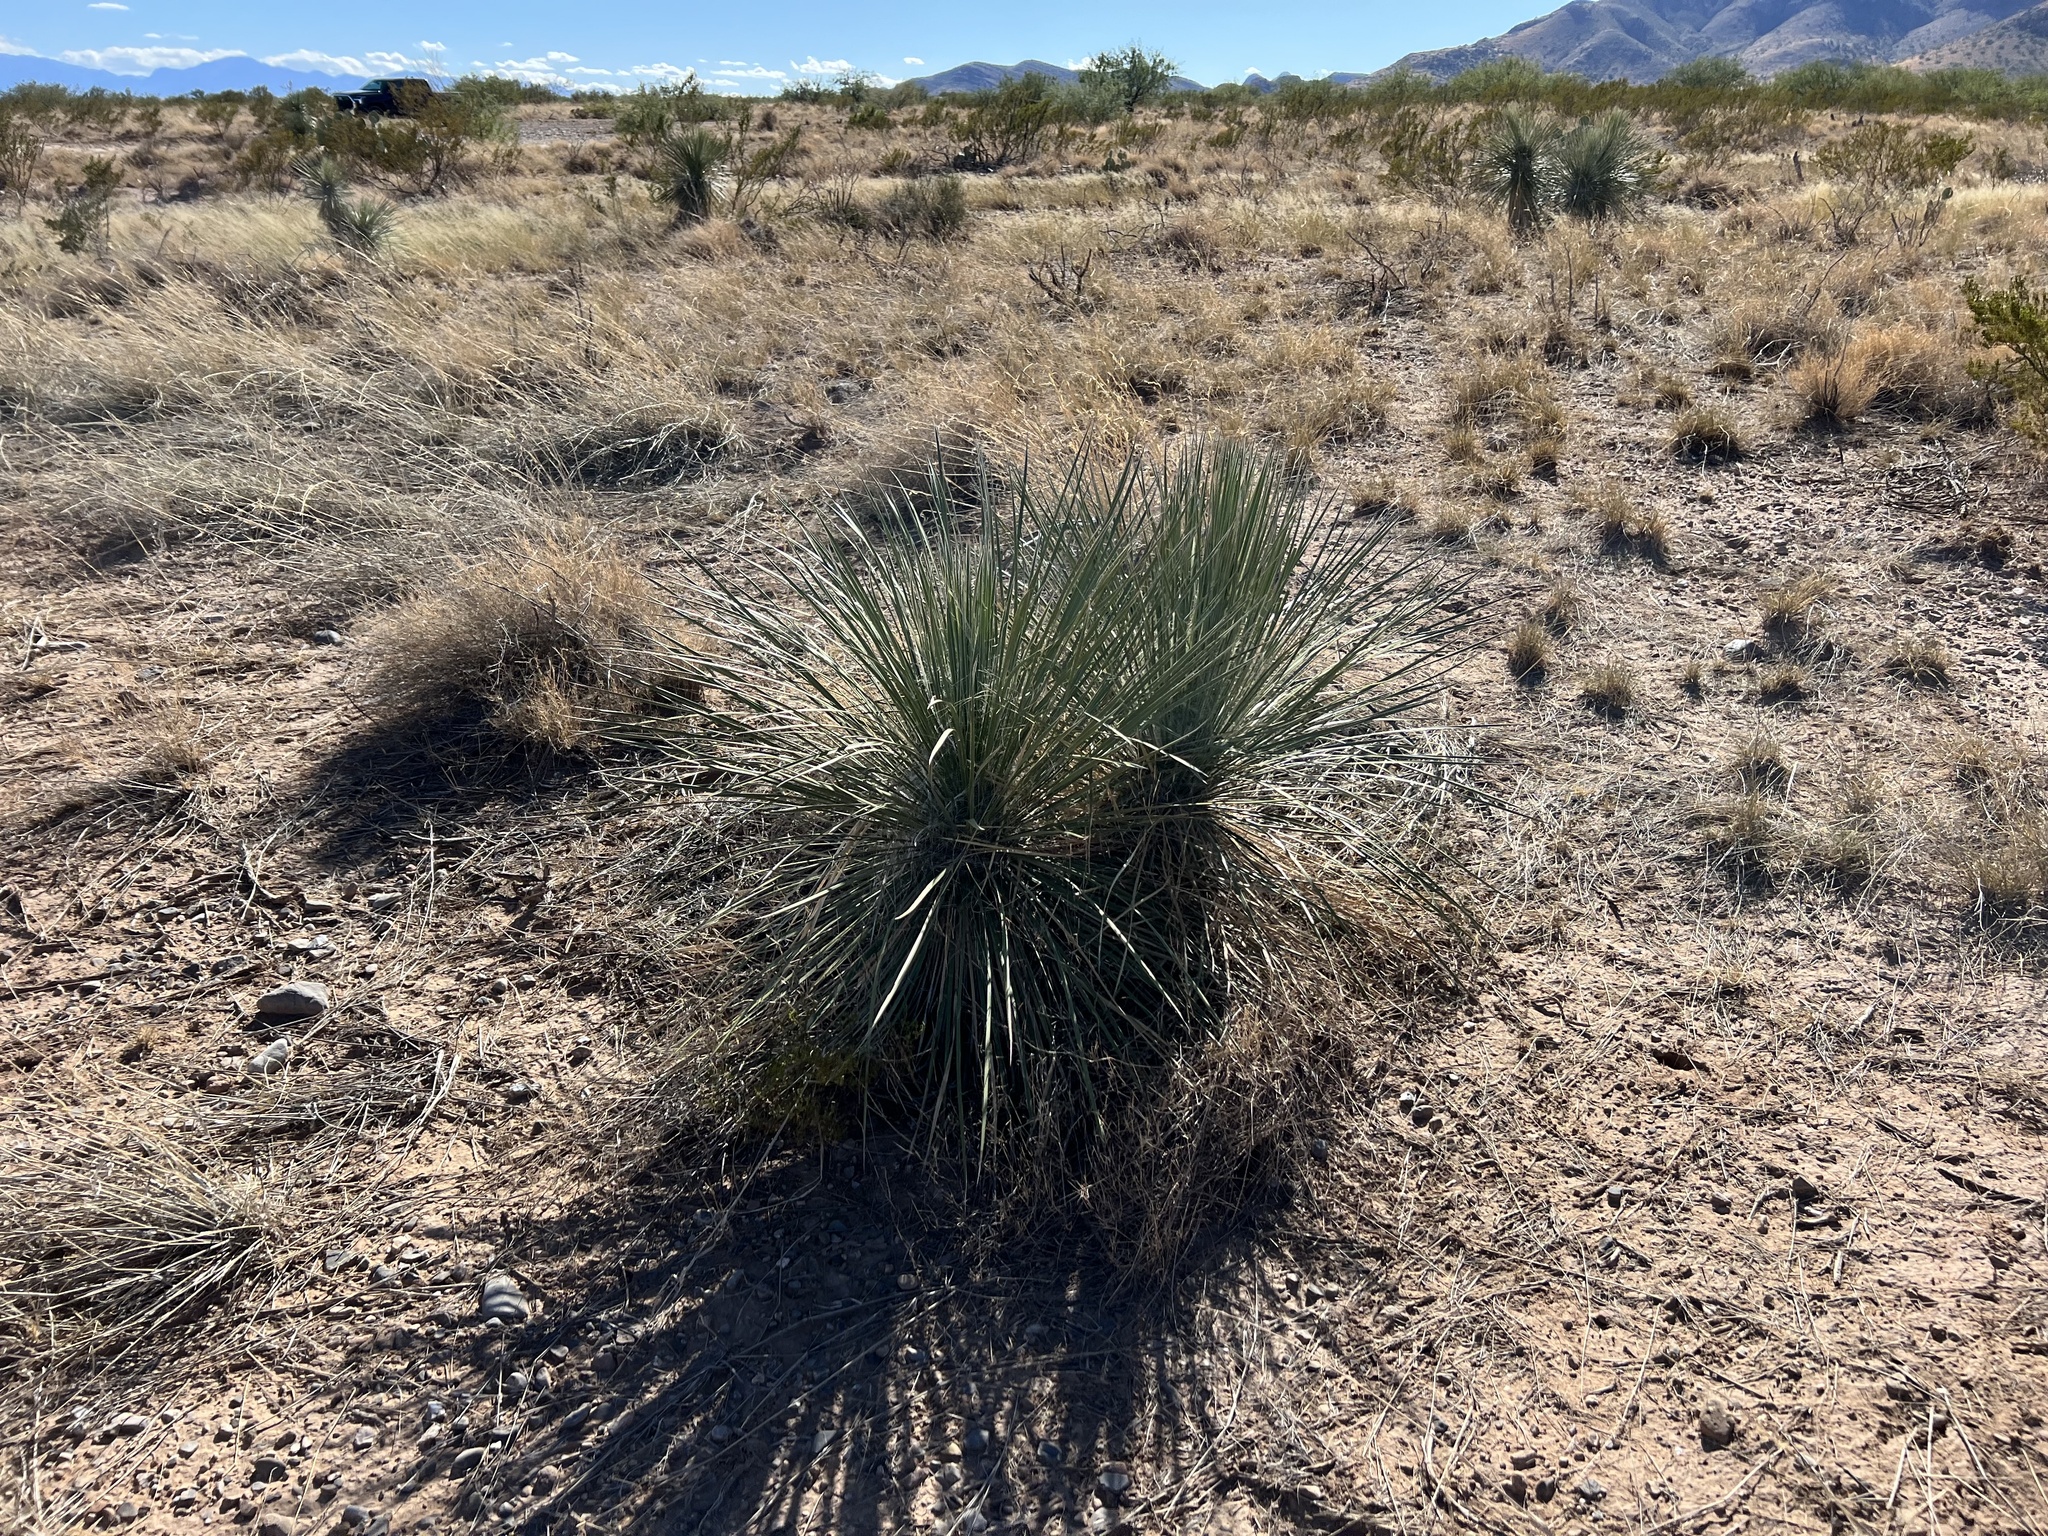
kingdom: Plantae
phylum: Tracheophyta
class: Liliopsida
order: Asparagales
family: Asparagaceae
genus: Yucca
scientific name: Yucca elata
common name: Palmella
